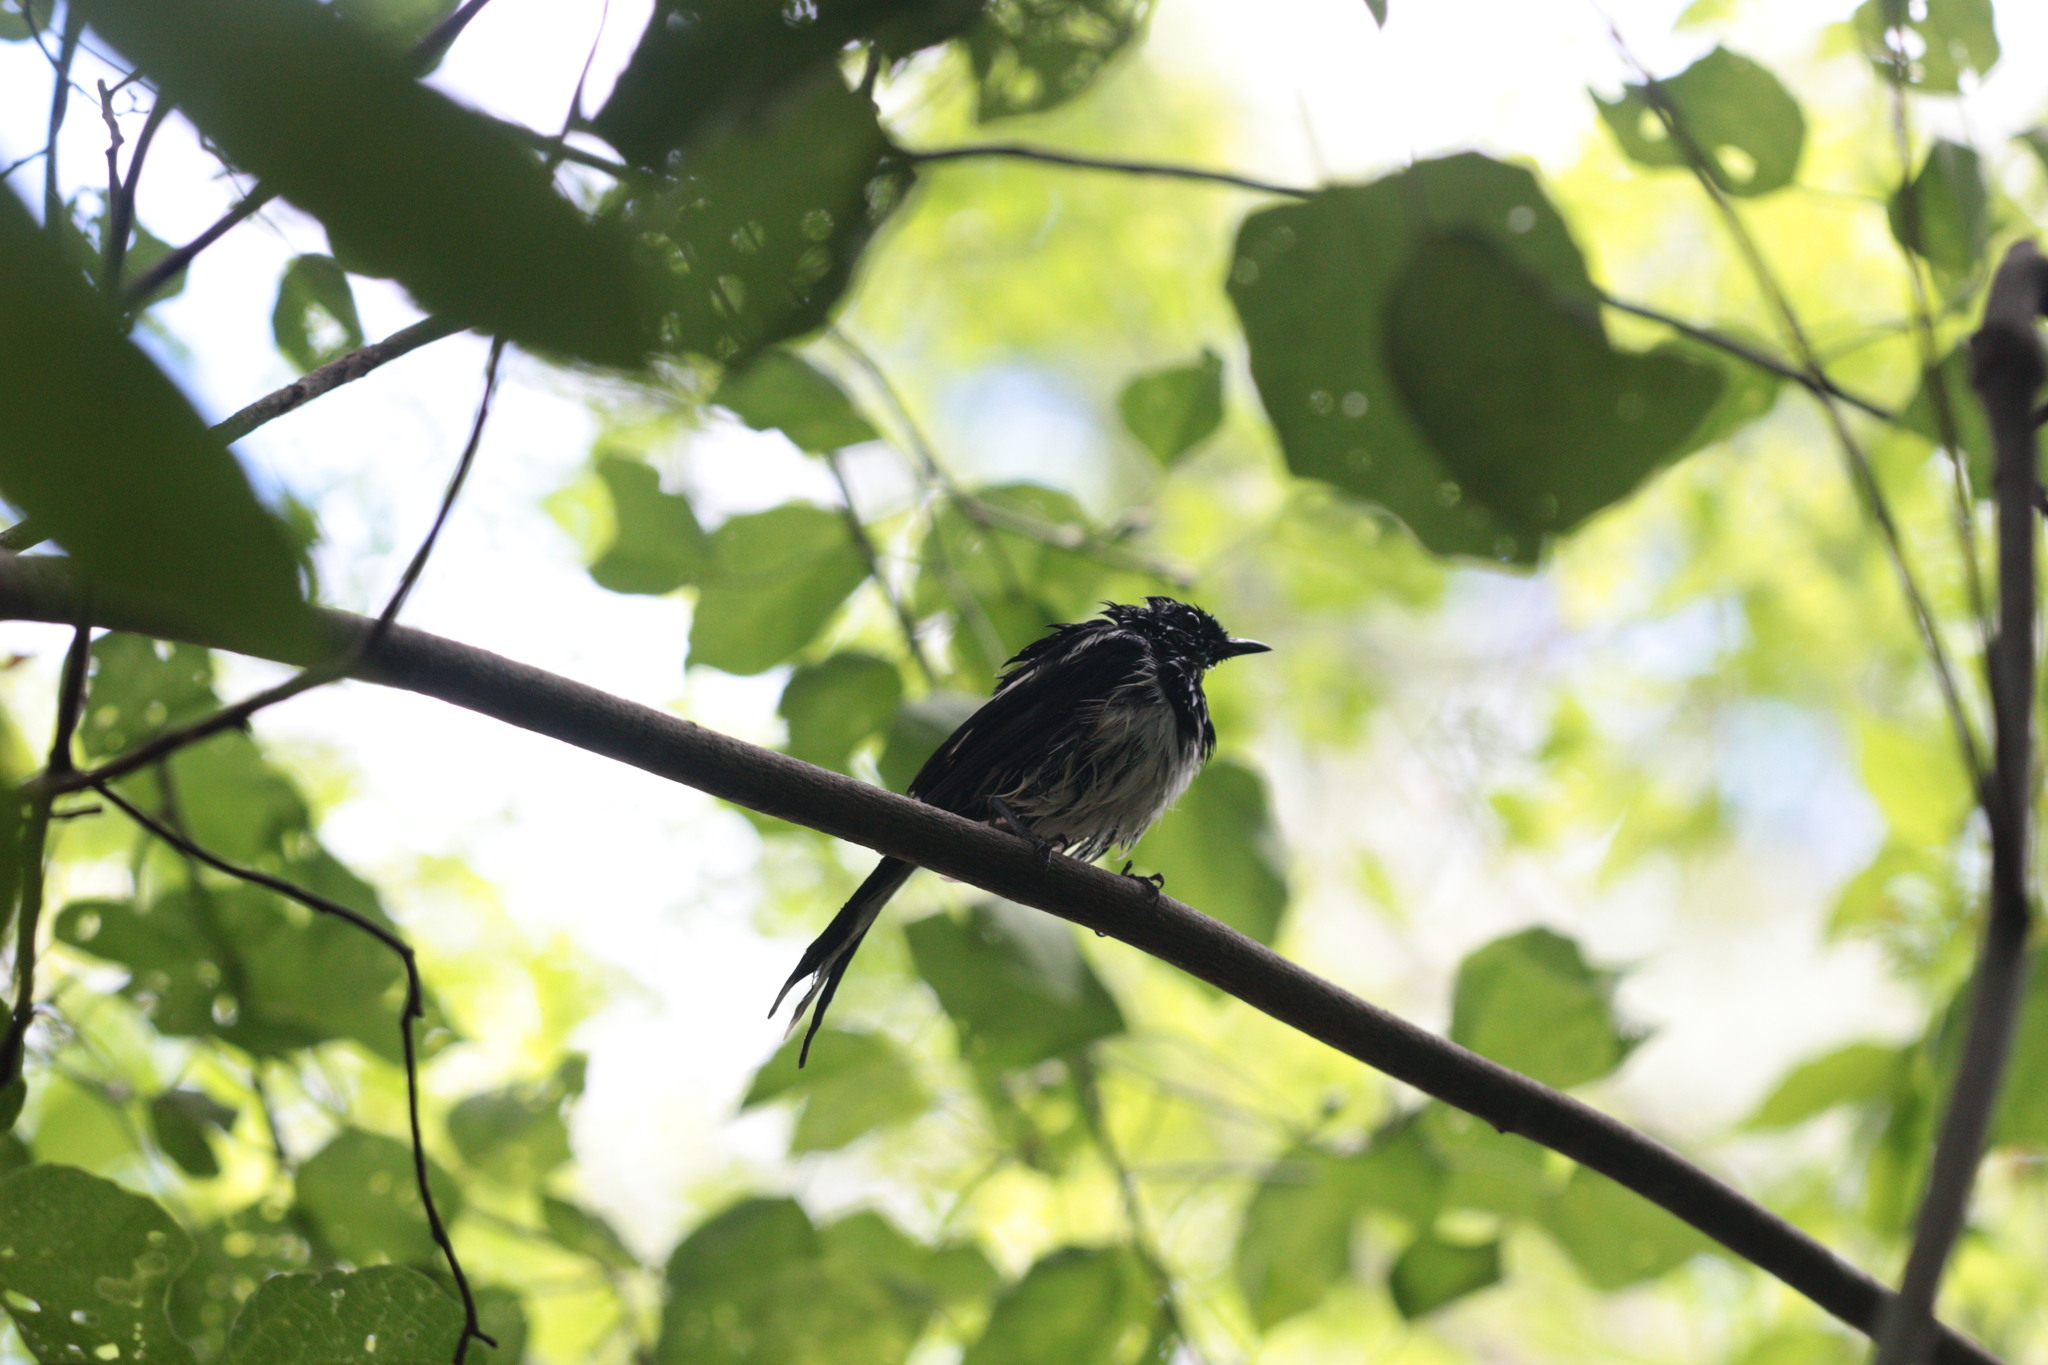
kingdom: Animalia
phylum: Chordata
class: Aves
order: Passeriformes
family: Muscicapidae
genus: Copsychus
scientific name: Copsychus albospecularis
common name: Madagascar magpie-robin
